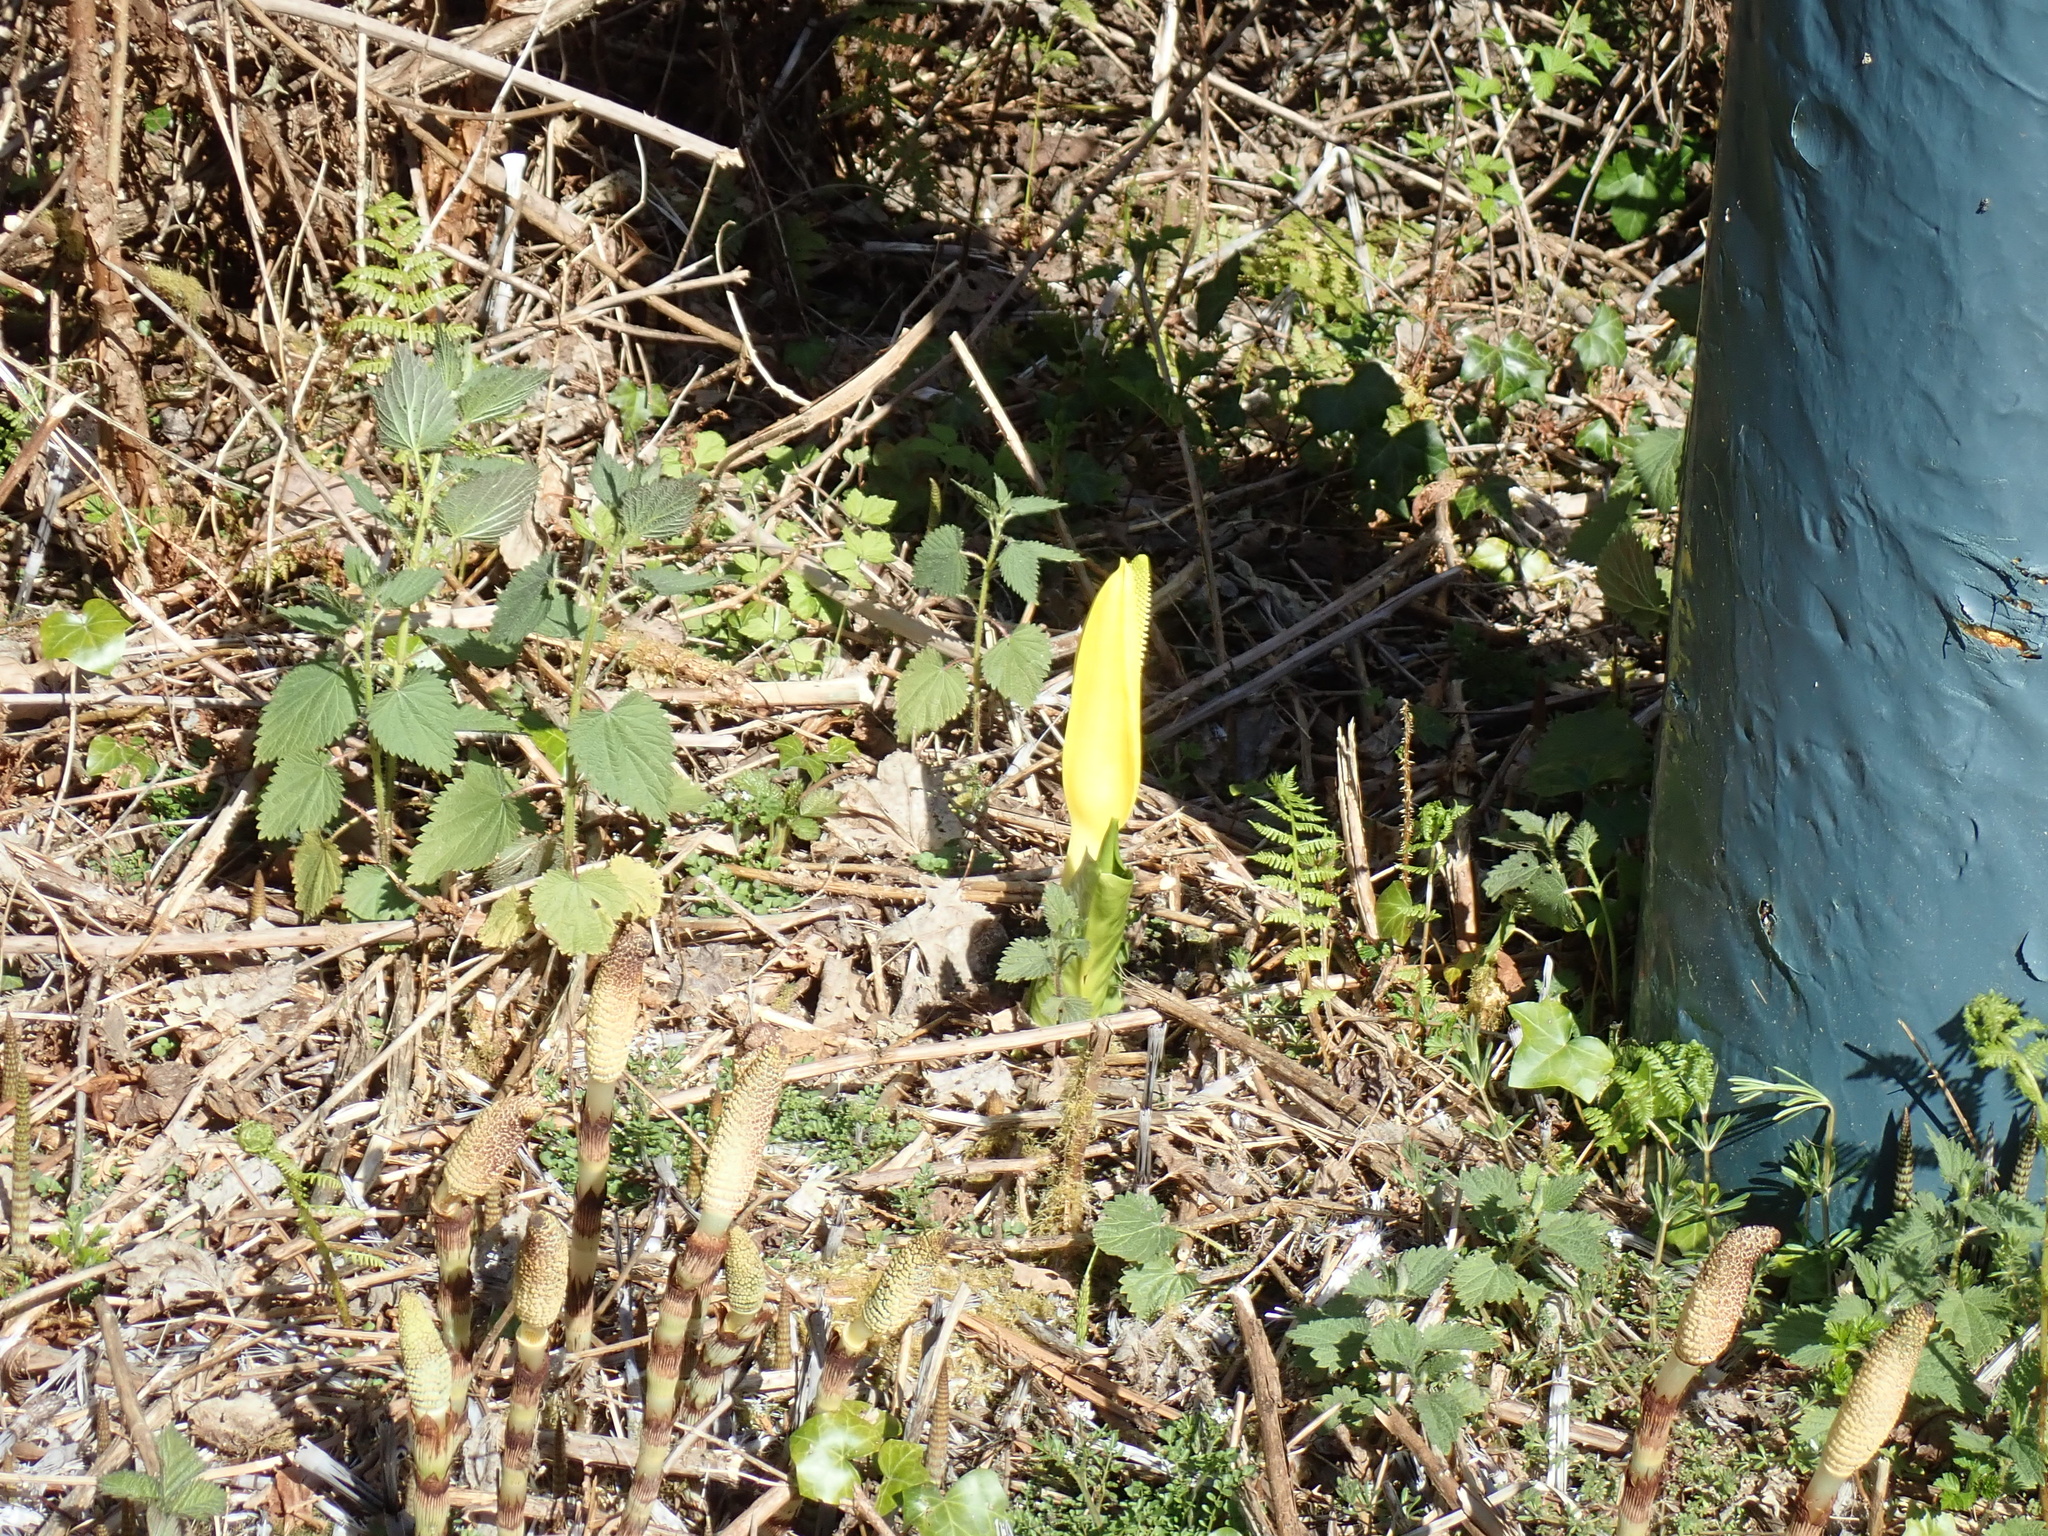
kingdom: Plantae
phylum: Tracheophyta
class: Liliopsida
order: Alismatales
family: Araceae
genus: Lysichiton
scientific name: Lysichiton americanus
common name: American skunk cabbage
